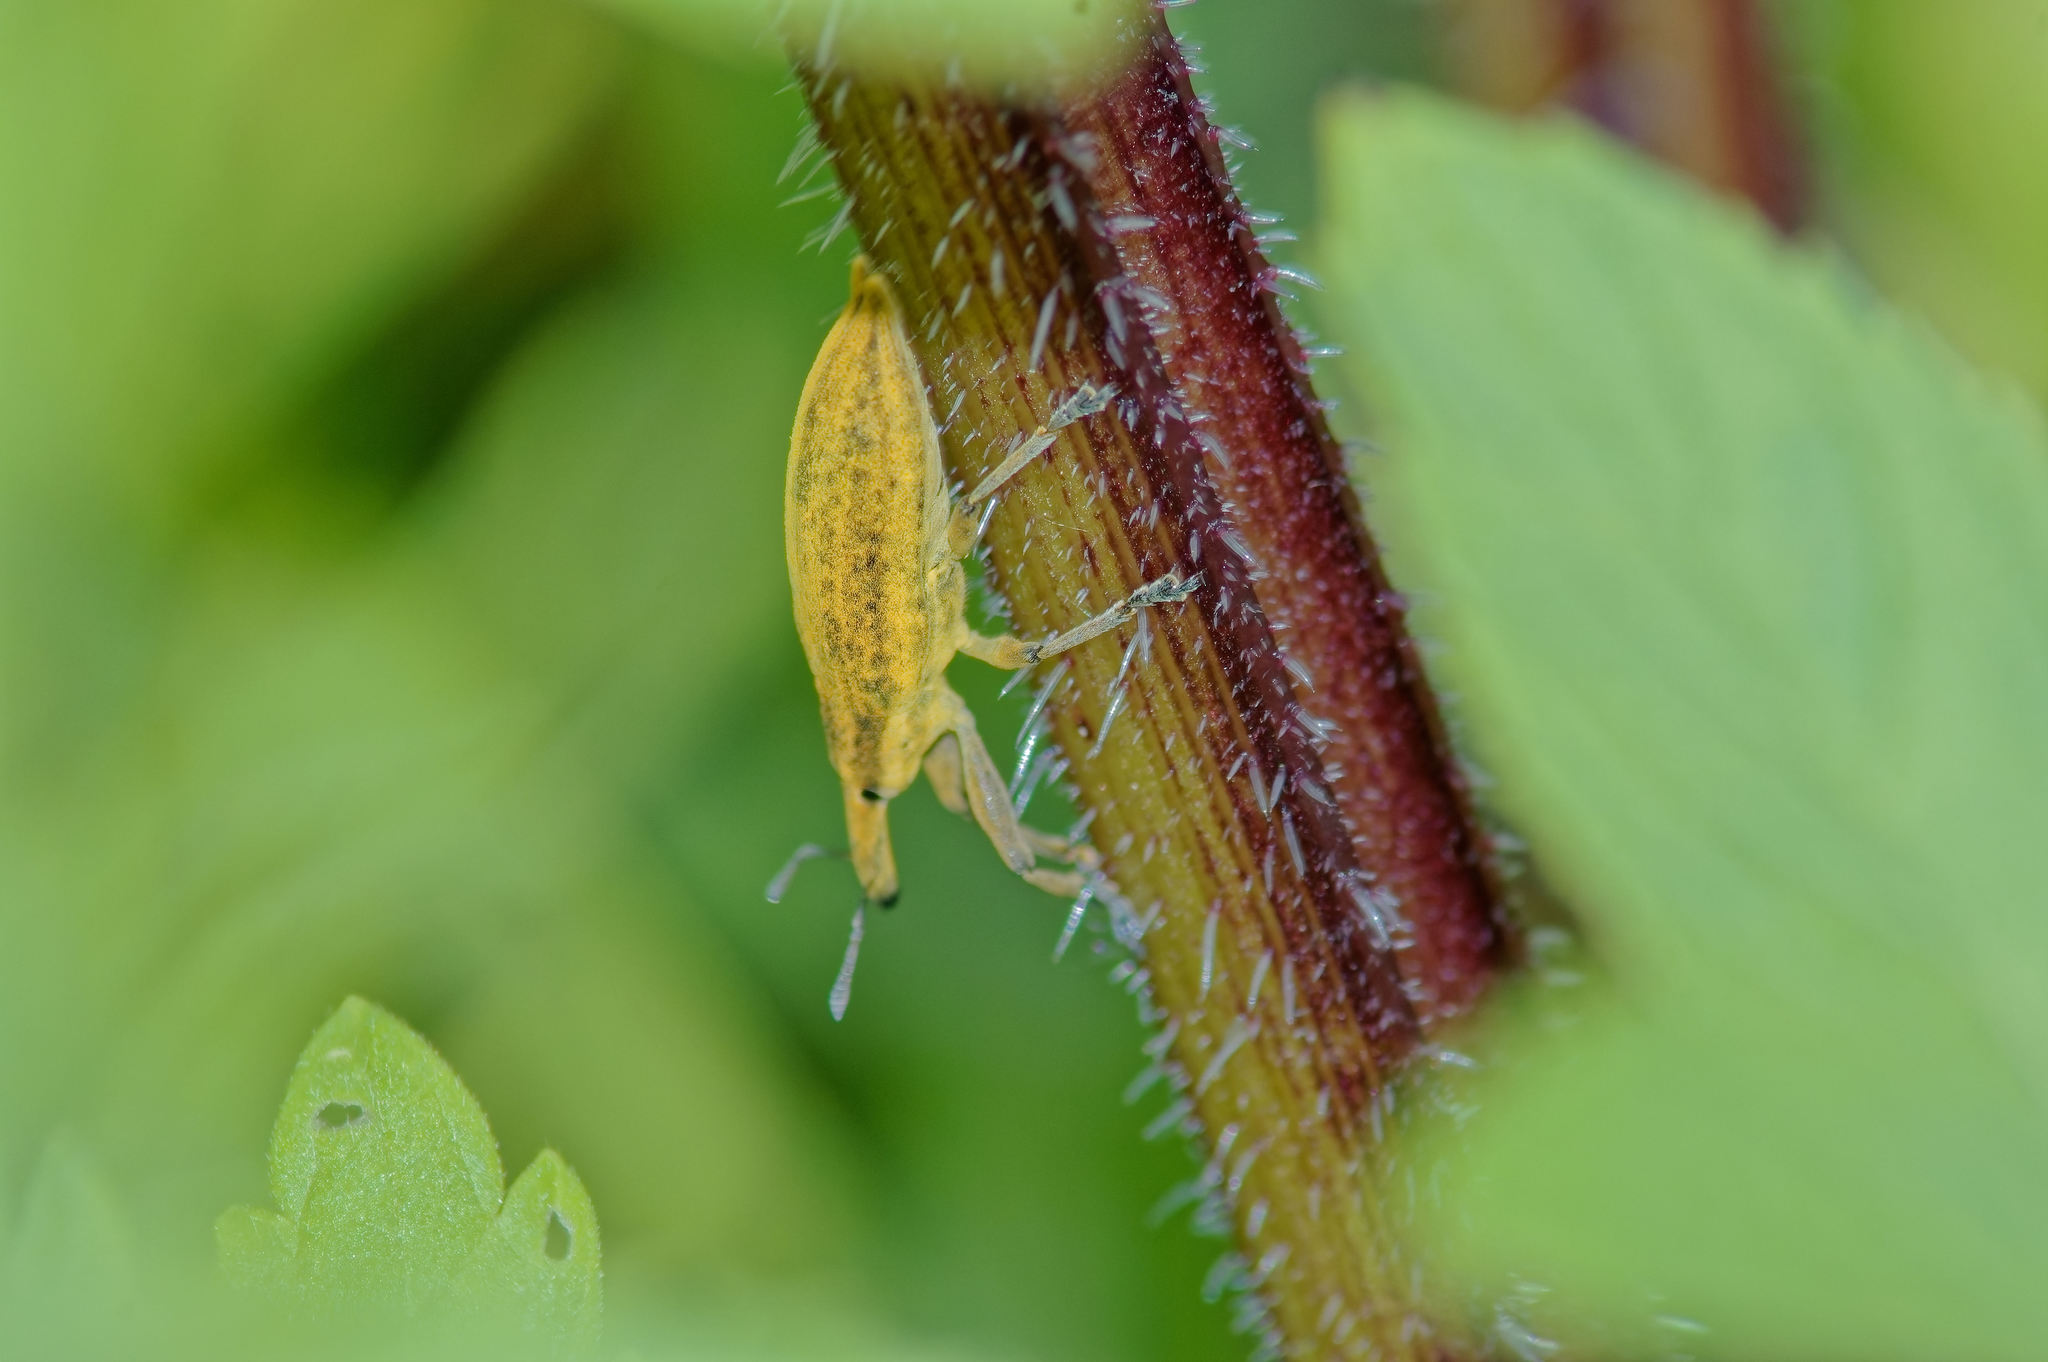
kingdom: Animalia
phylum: Arthropoda
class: Insecta
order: Coleoptera
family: Curculionidae
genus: Lixus
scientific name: Lixus iridis
